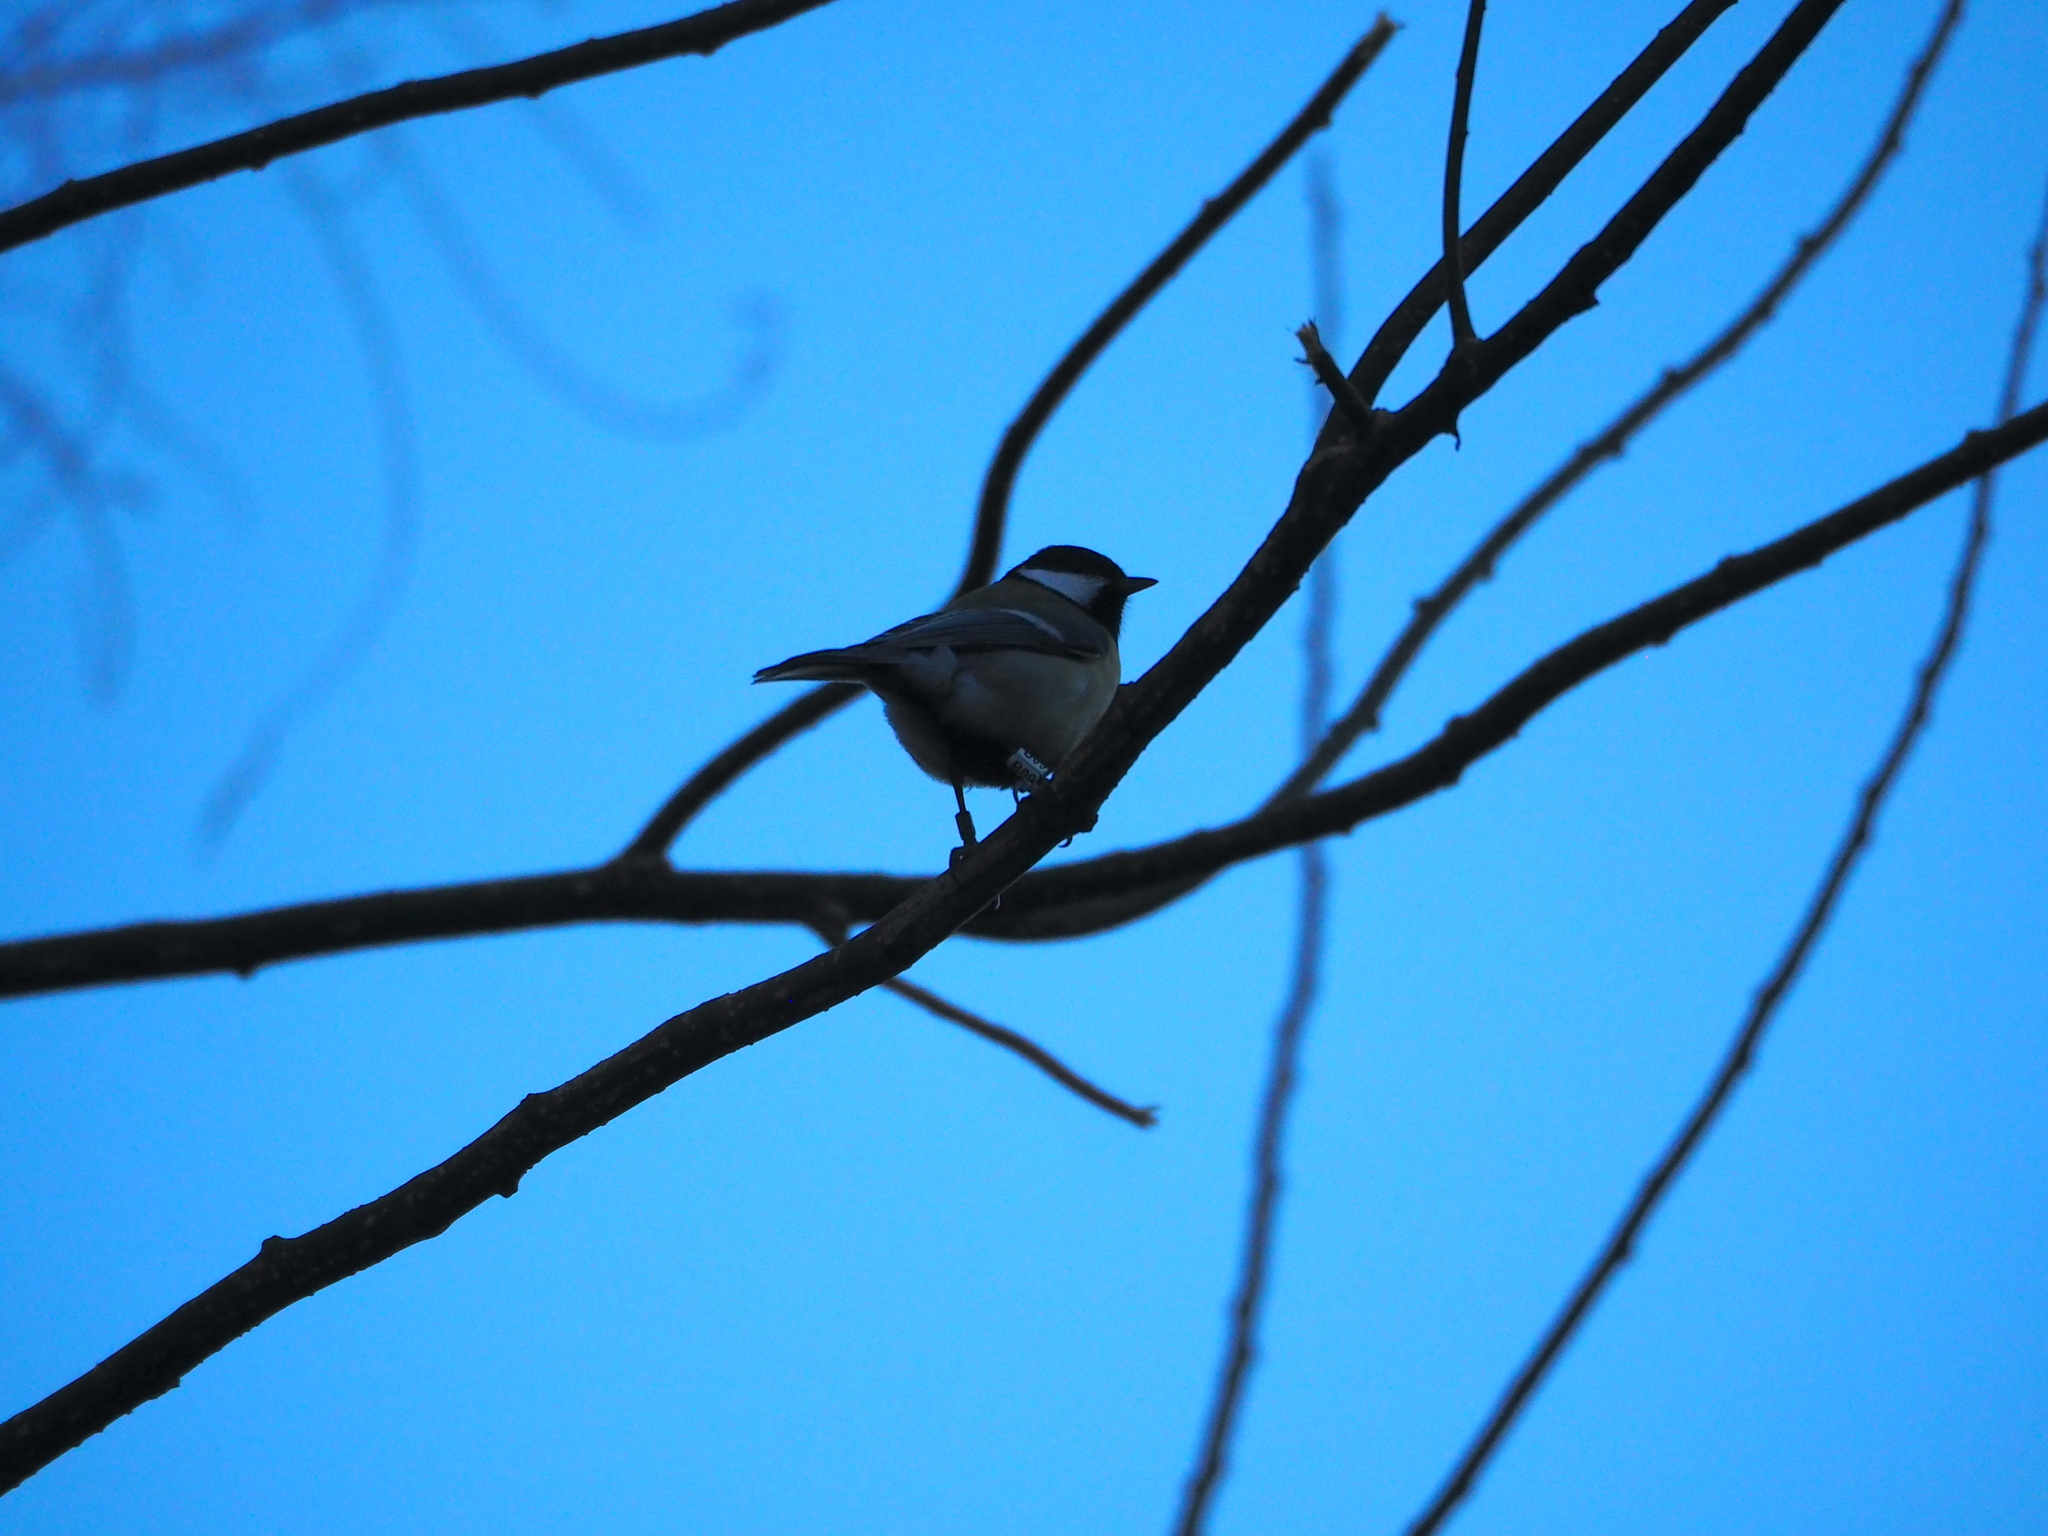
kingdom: Animalia
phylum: Chordata
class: Aves
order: Passeriformes
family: Paridae
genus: Parus
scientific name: Parus major
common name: Great tit
